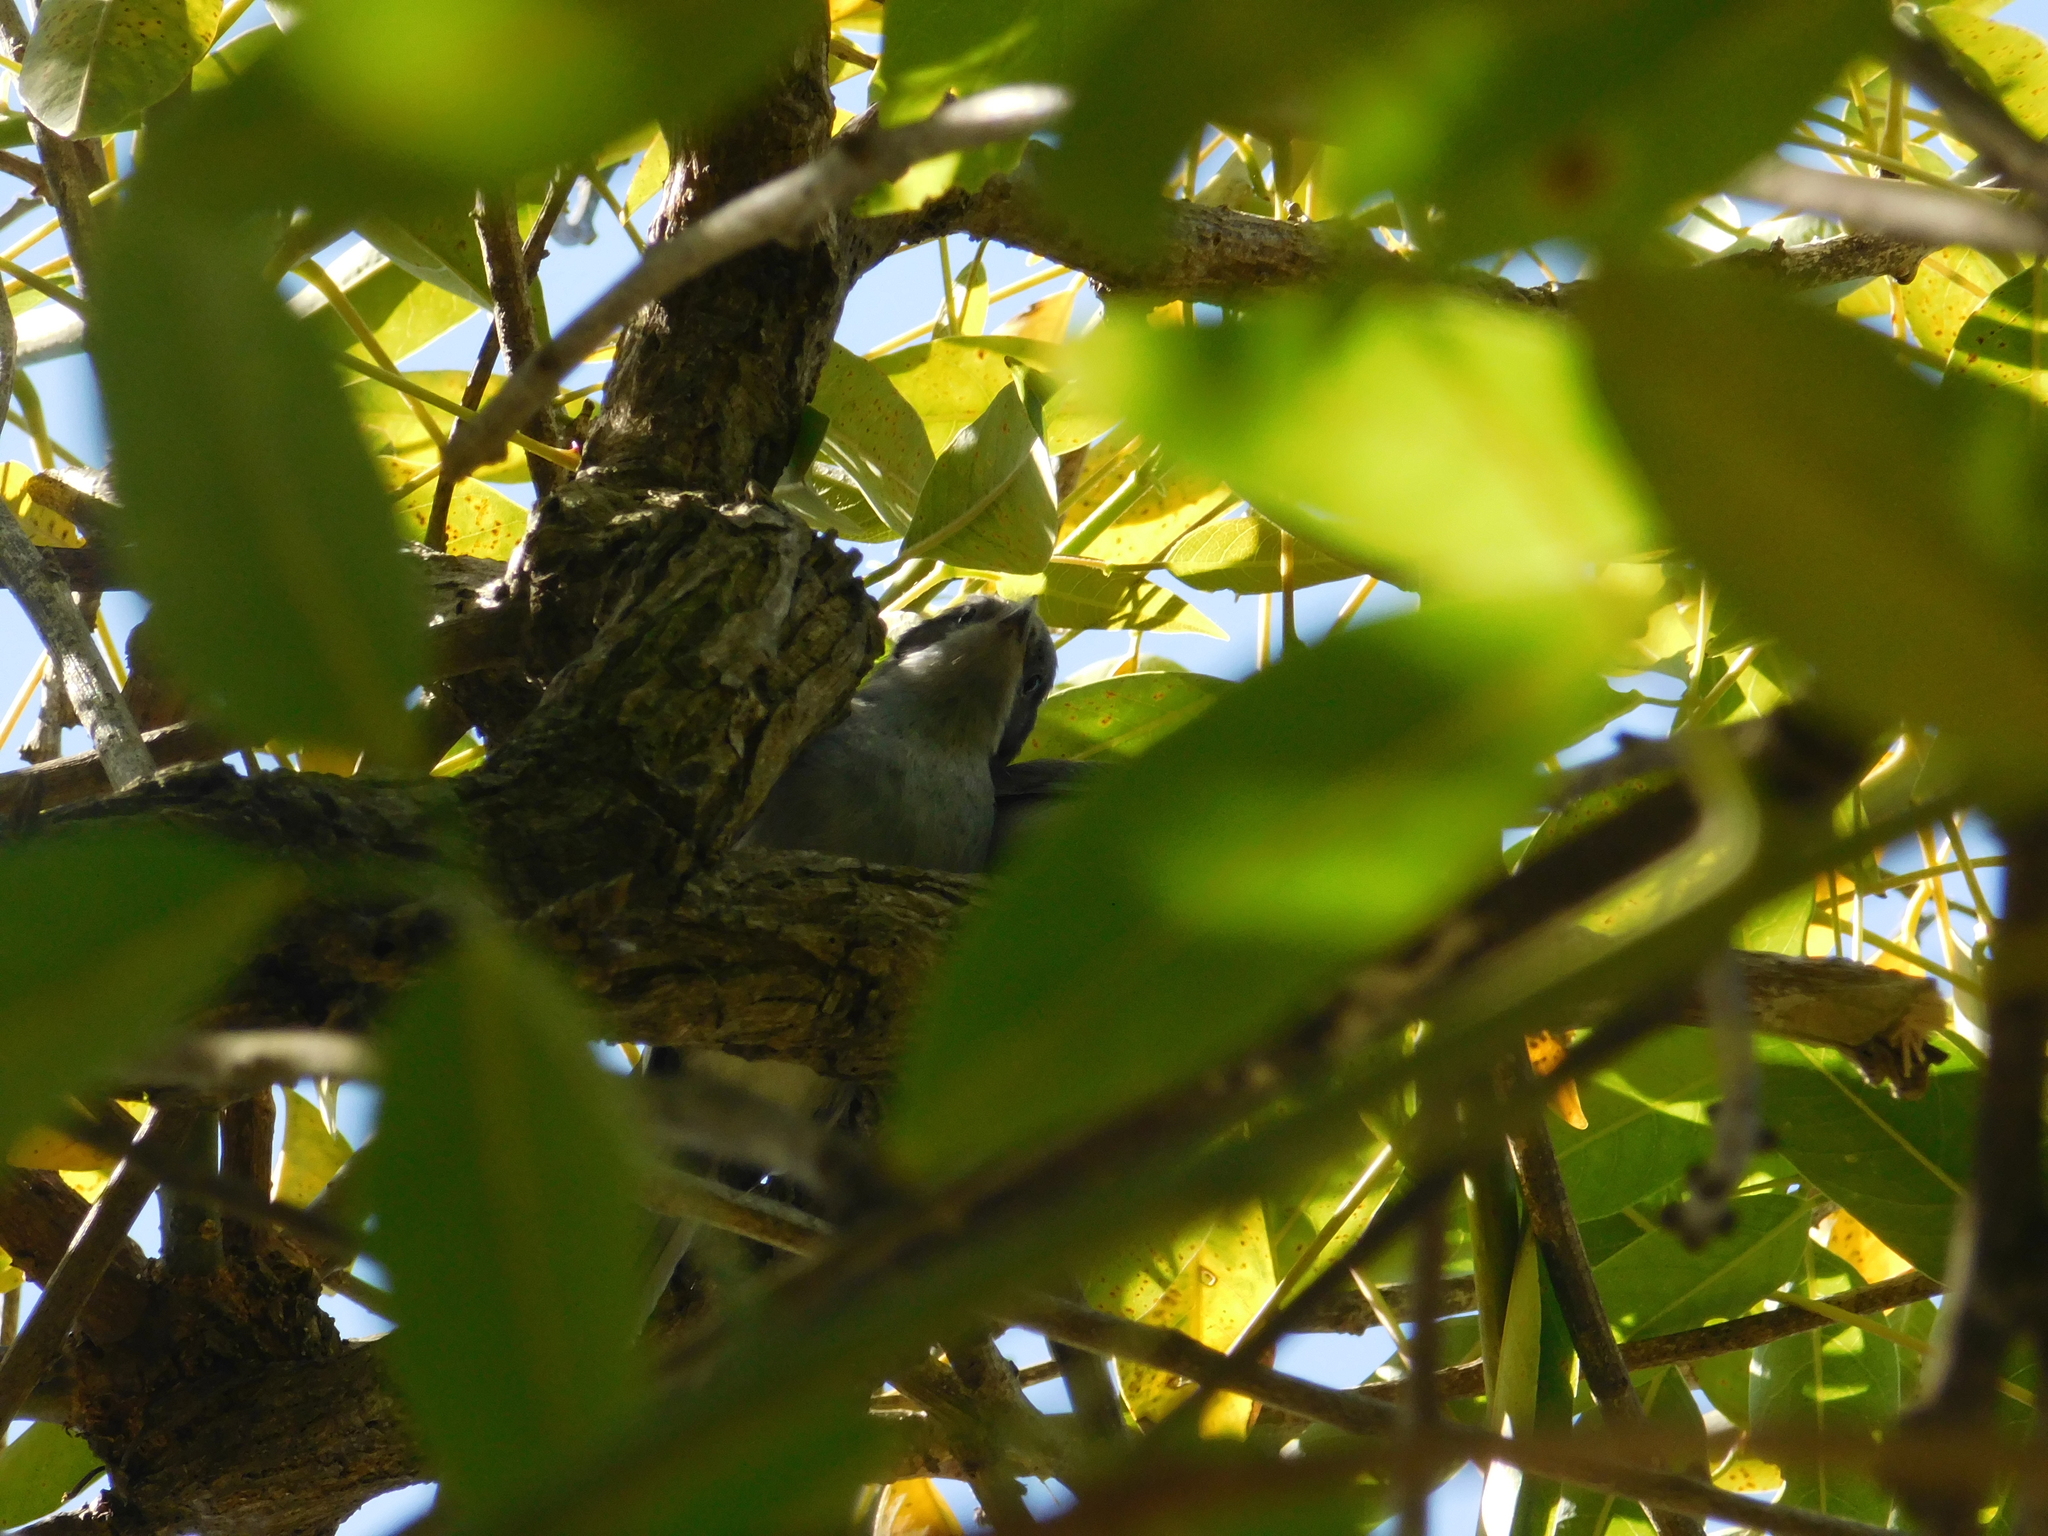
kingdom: Animalia
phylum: Chordata
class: Aves
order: Passeriformes
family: Polioptilidae
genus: Polioptila
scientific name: Polioptila dumicola
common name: Masked gnatcatcher
